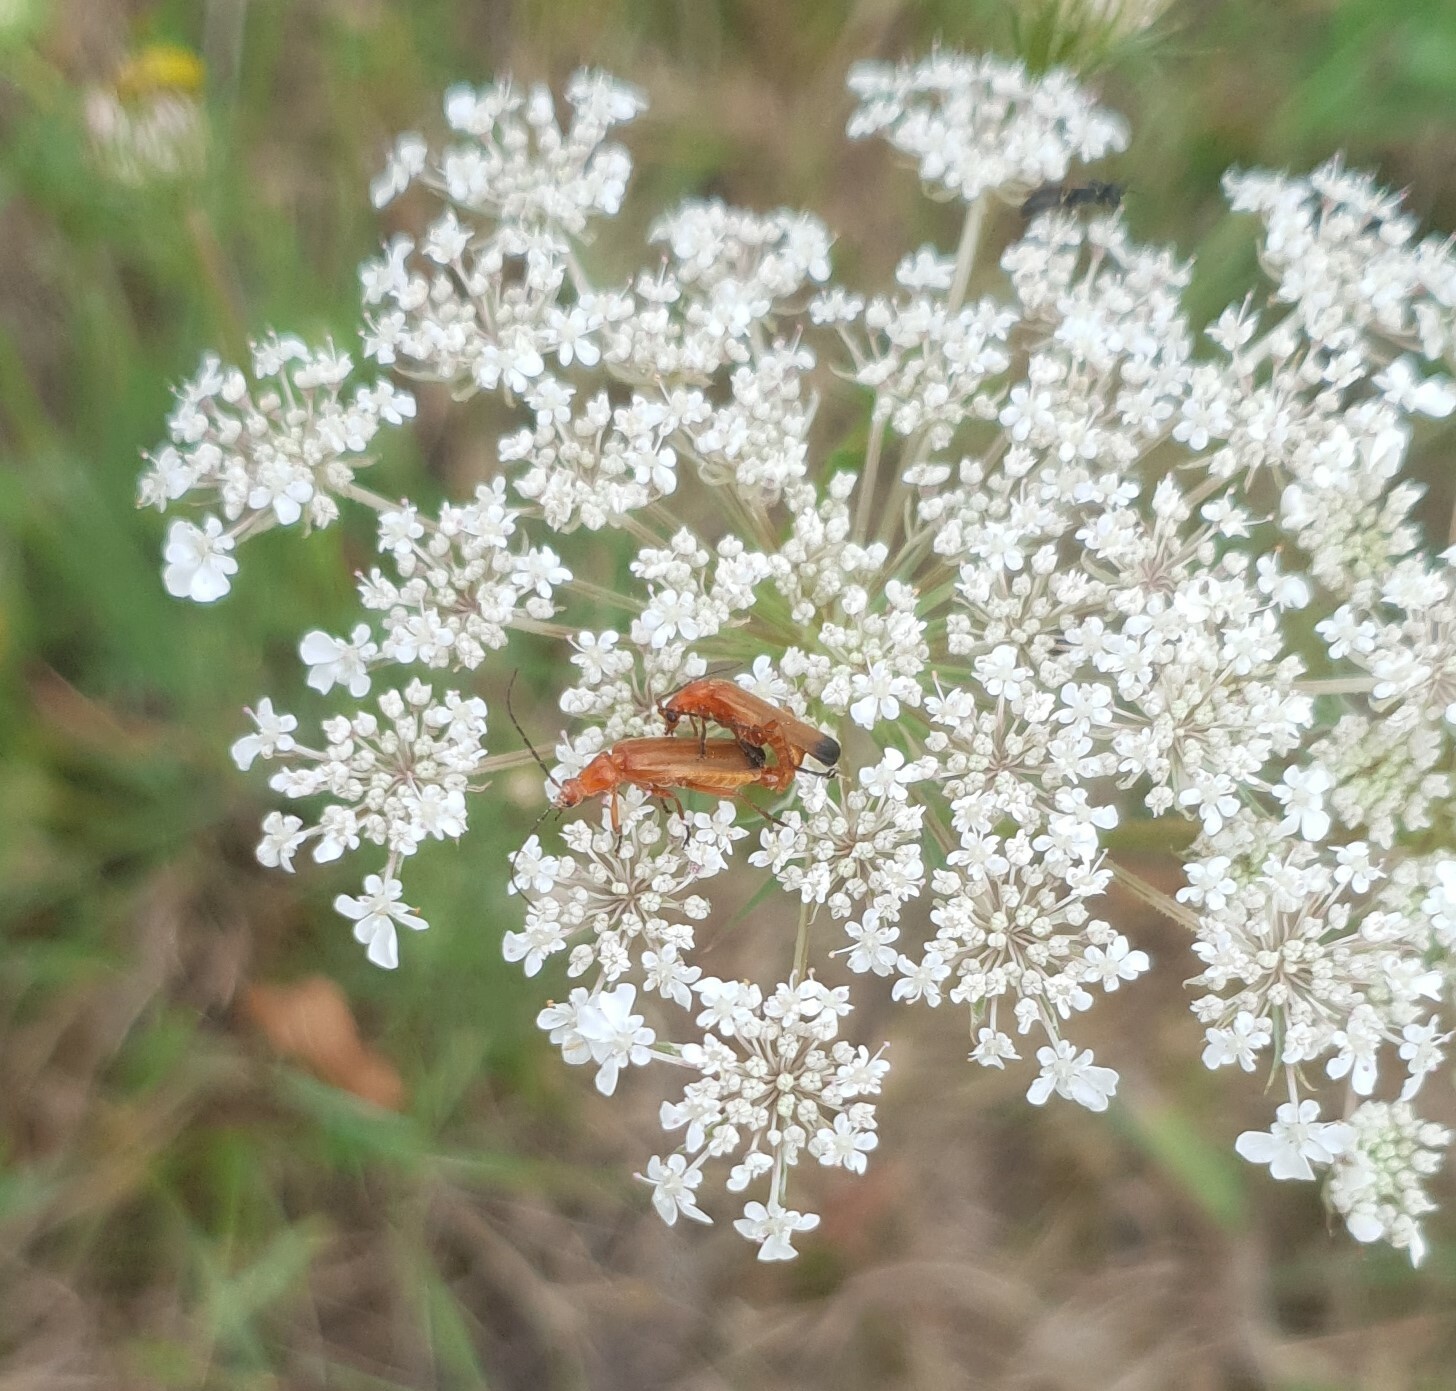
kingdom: Animalia
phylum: Arthropoda
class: Insecta
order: Coleoptera
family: Cantharidae
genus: Rhagonycha
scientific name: Rhagonycha fulva
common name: Common red soldier beetle
